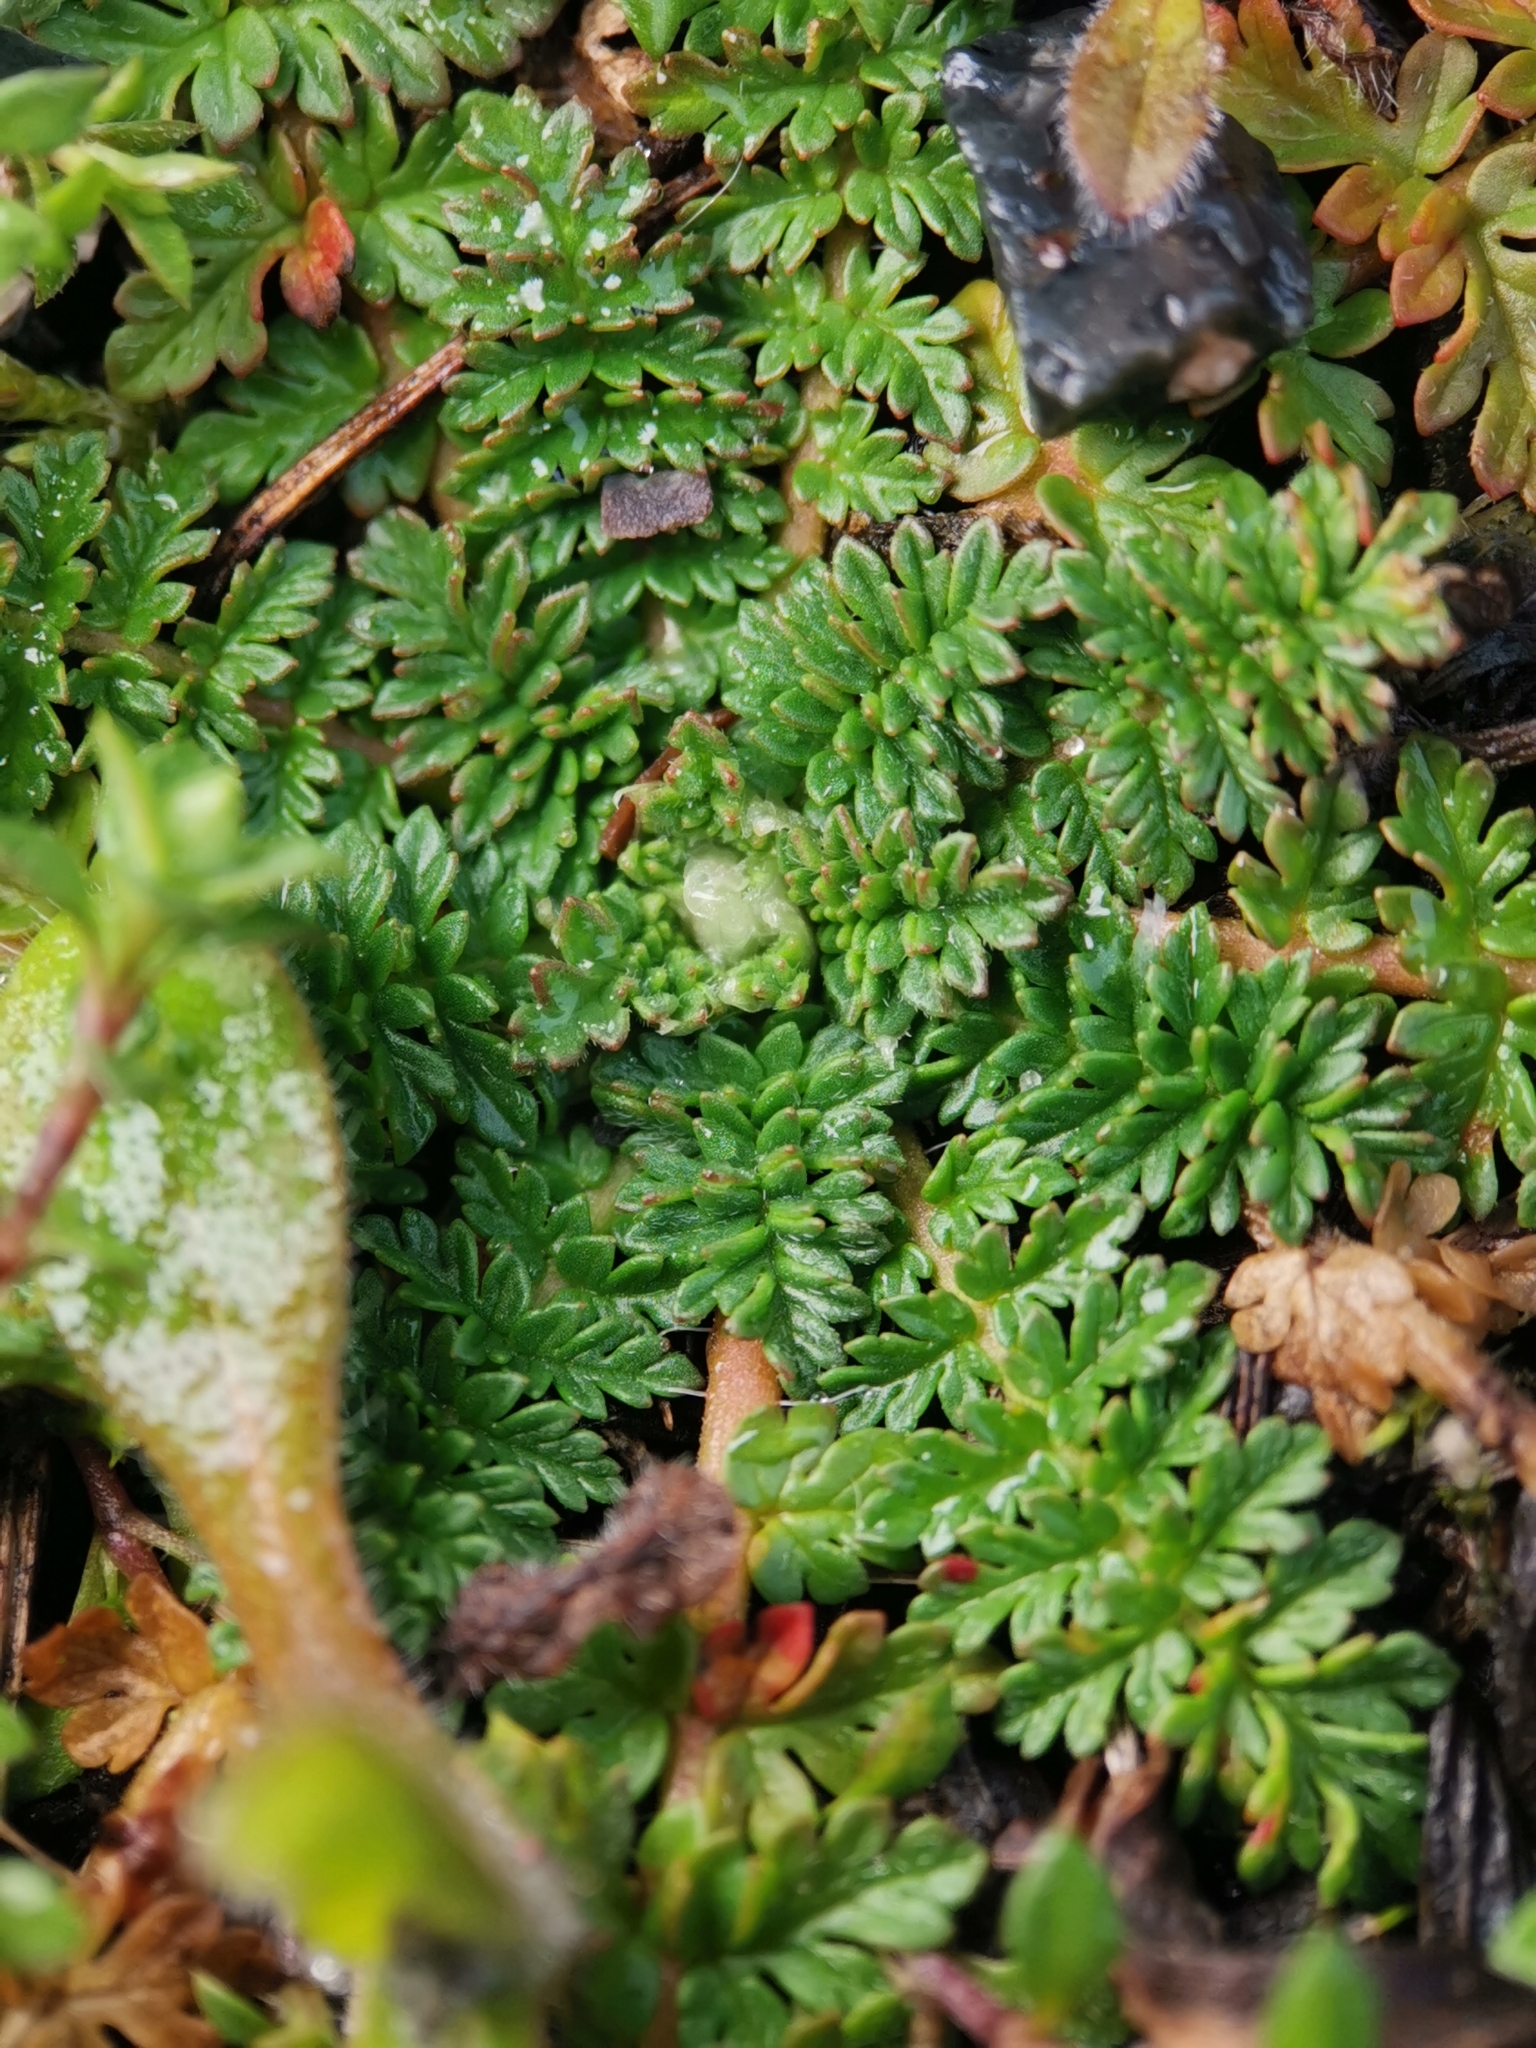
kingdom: Plantae
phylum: Tracheophyta
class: Magnoliopsida
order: Geraniales
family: Geraniaceae
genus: Erodium
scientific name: Erodium cicutarium
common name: Common stork's-bill
